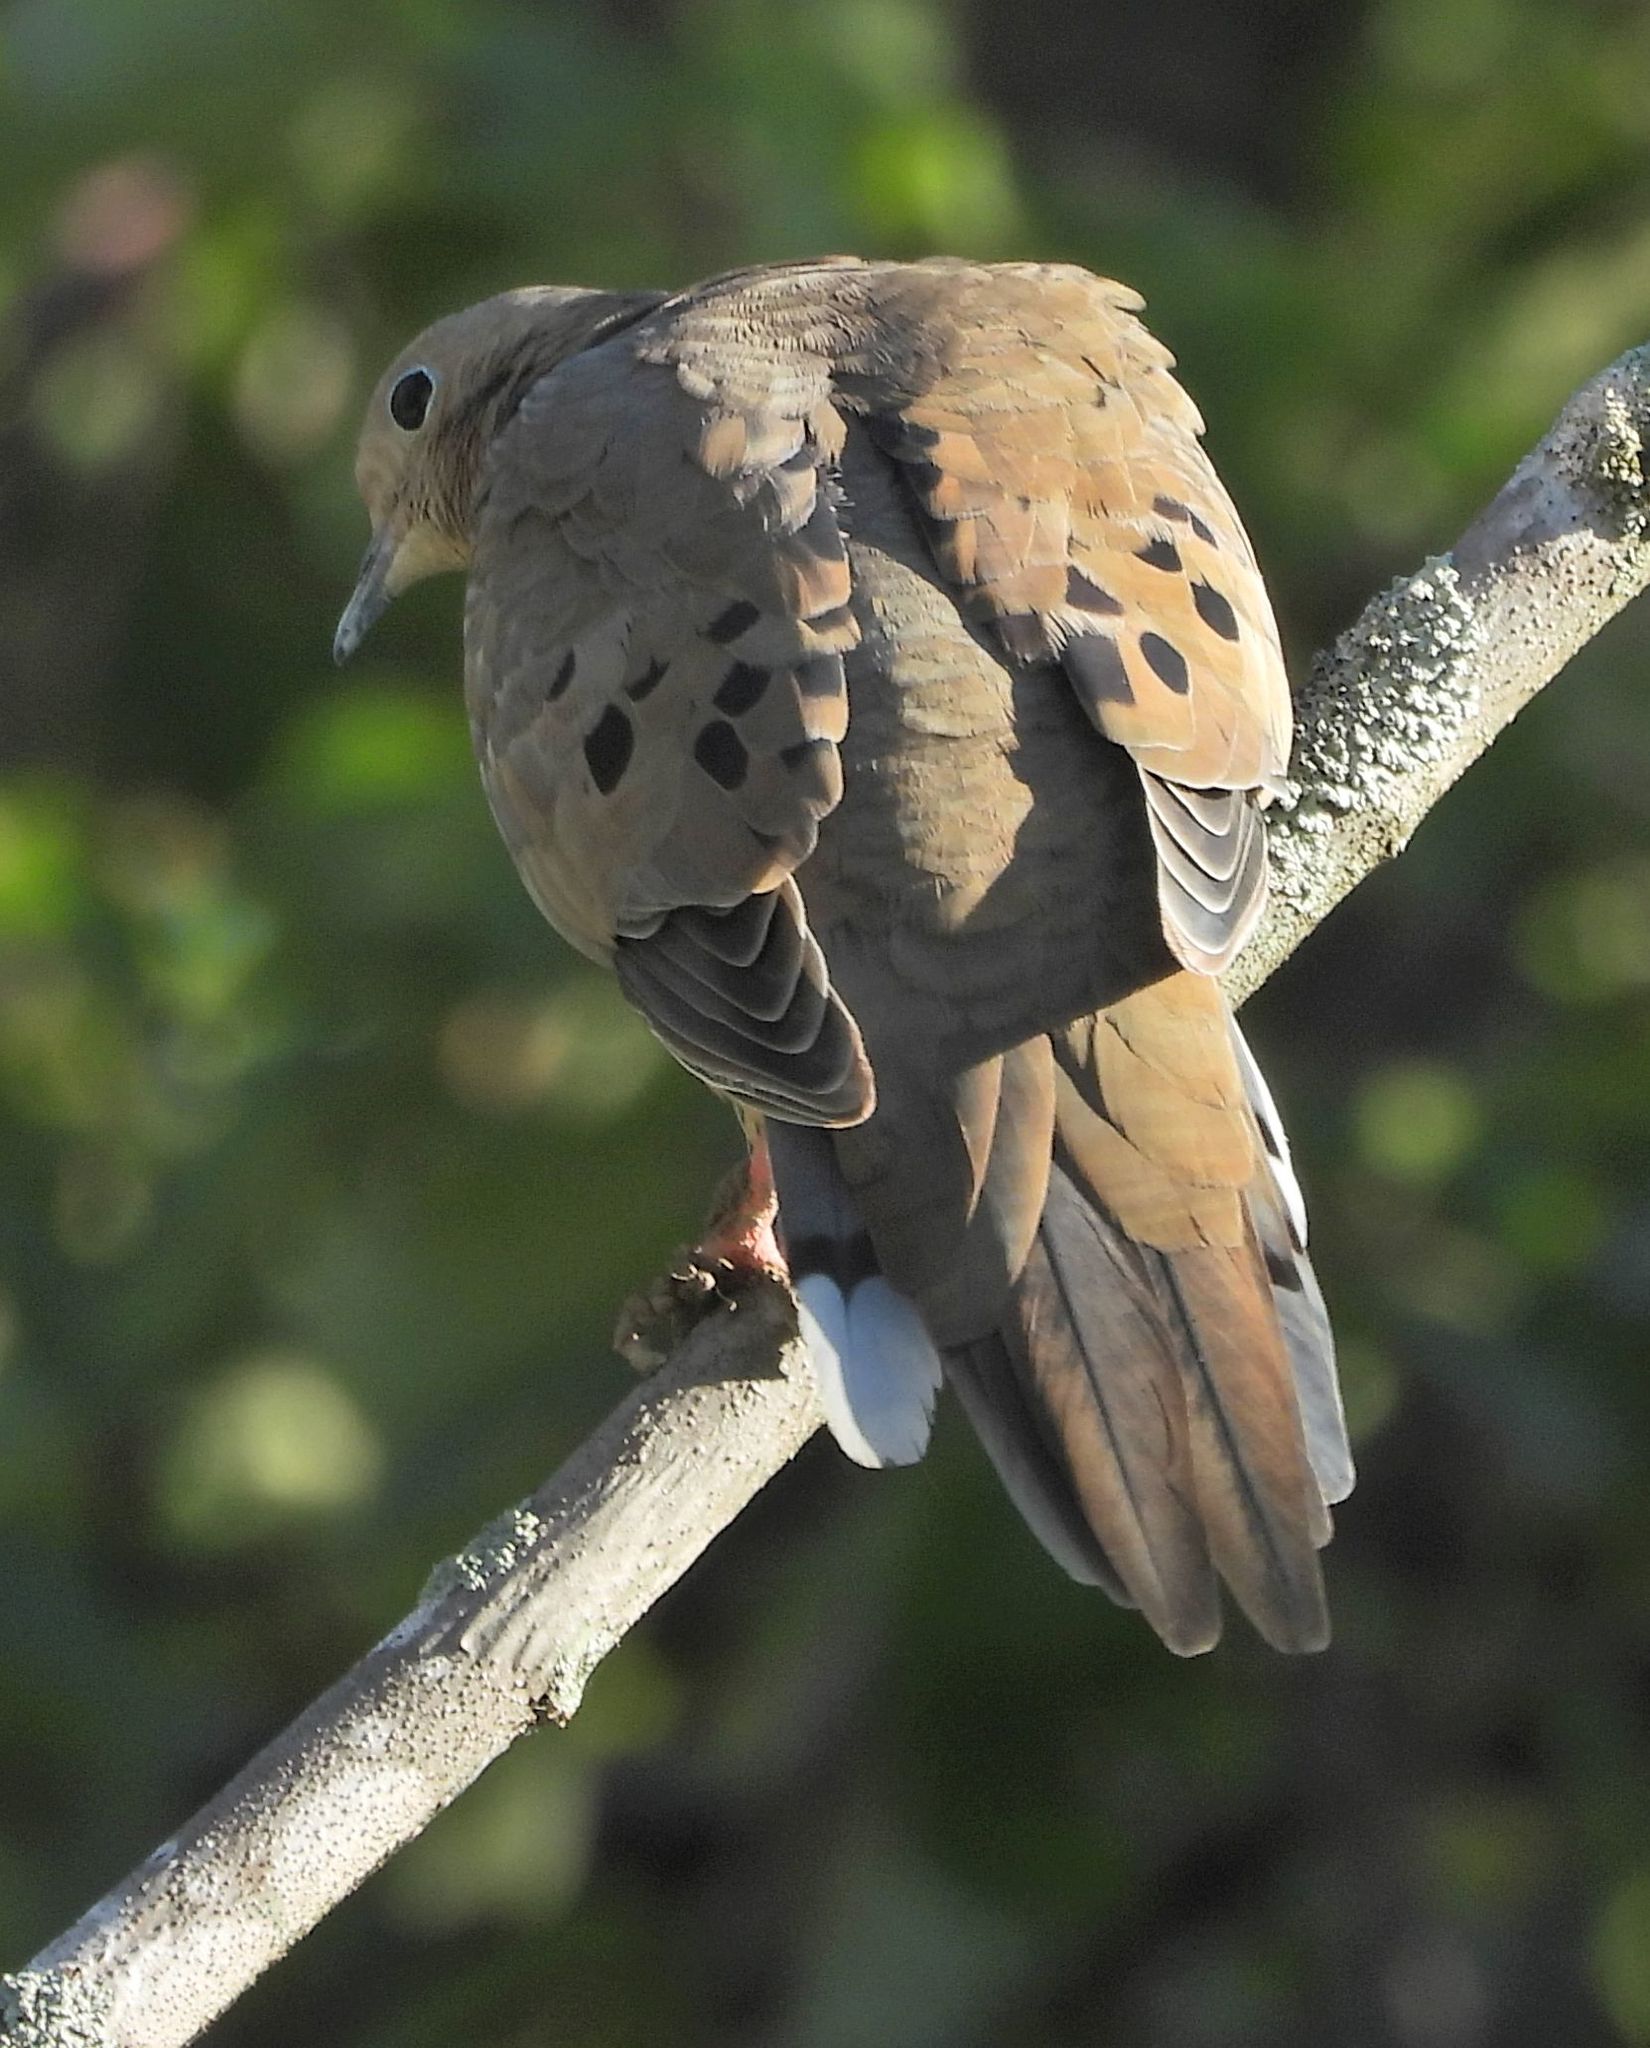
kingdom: Animalia
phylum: Chordata
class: Aves
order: Columbiformes
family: Columbidae
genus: Zenaida
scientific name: Zenaida macroura
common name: Mourning dove
